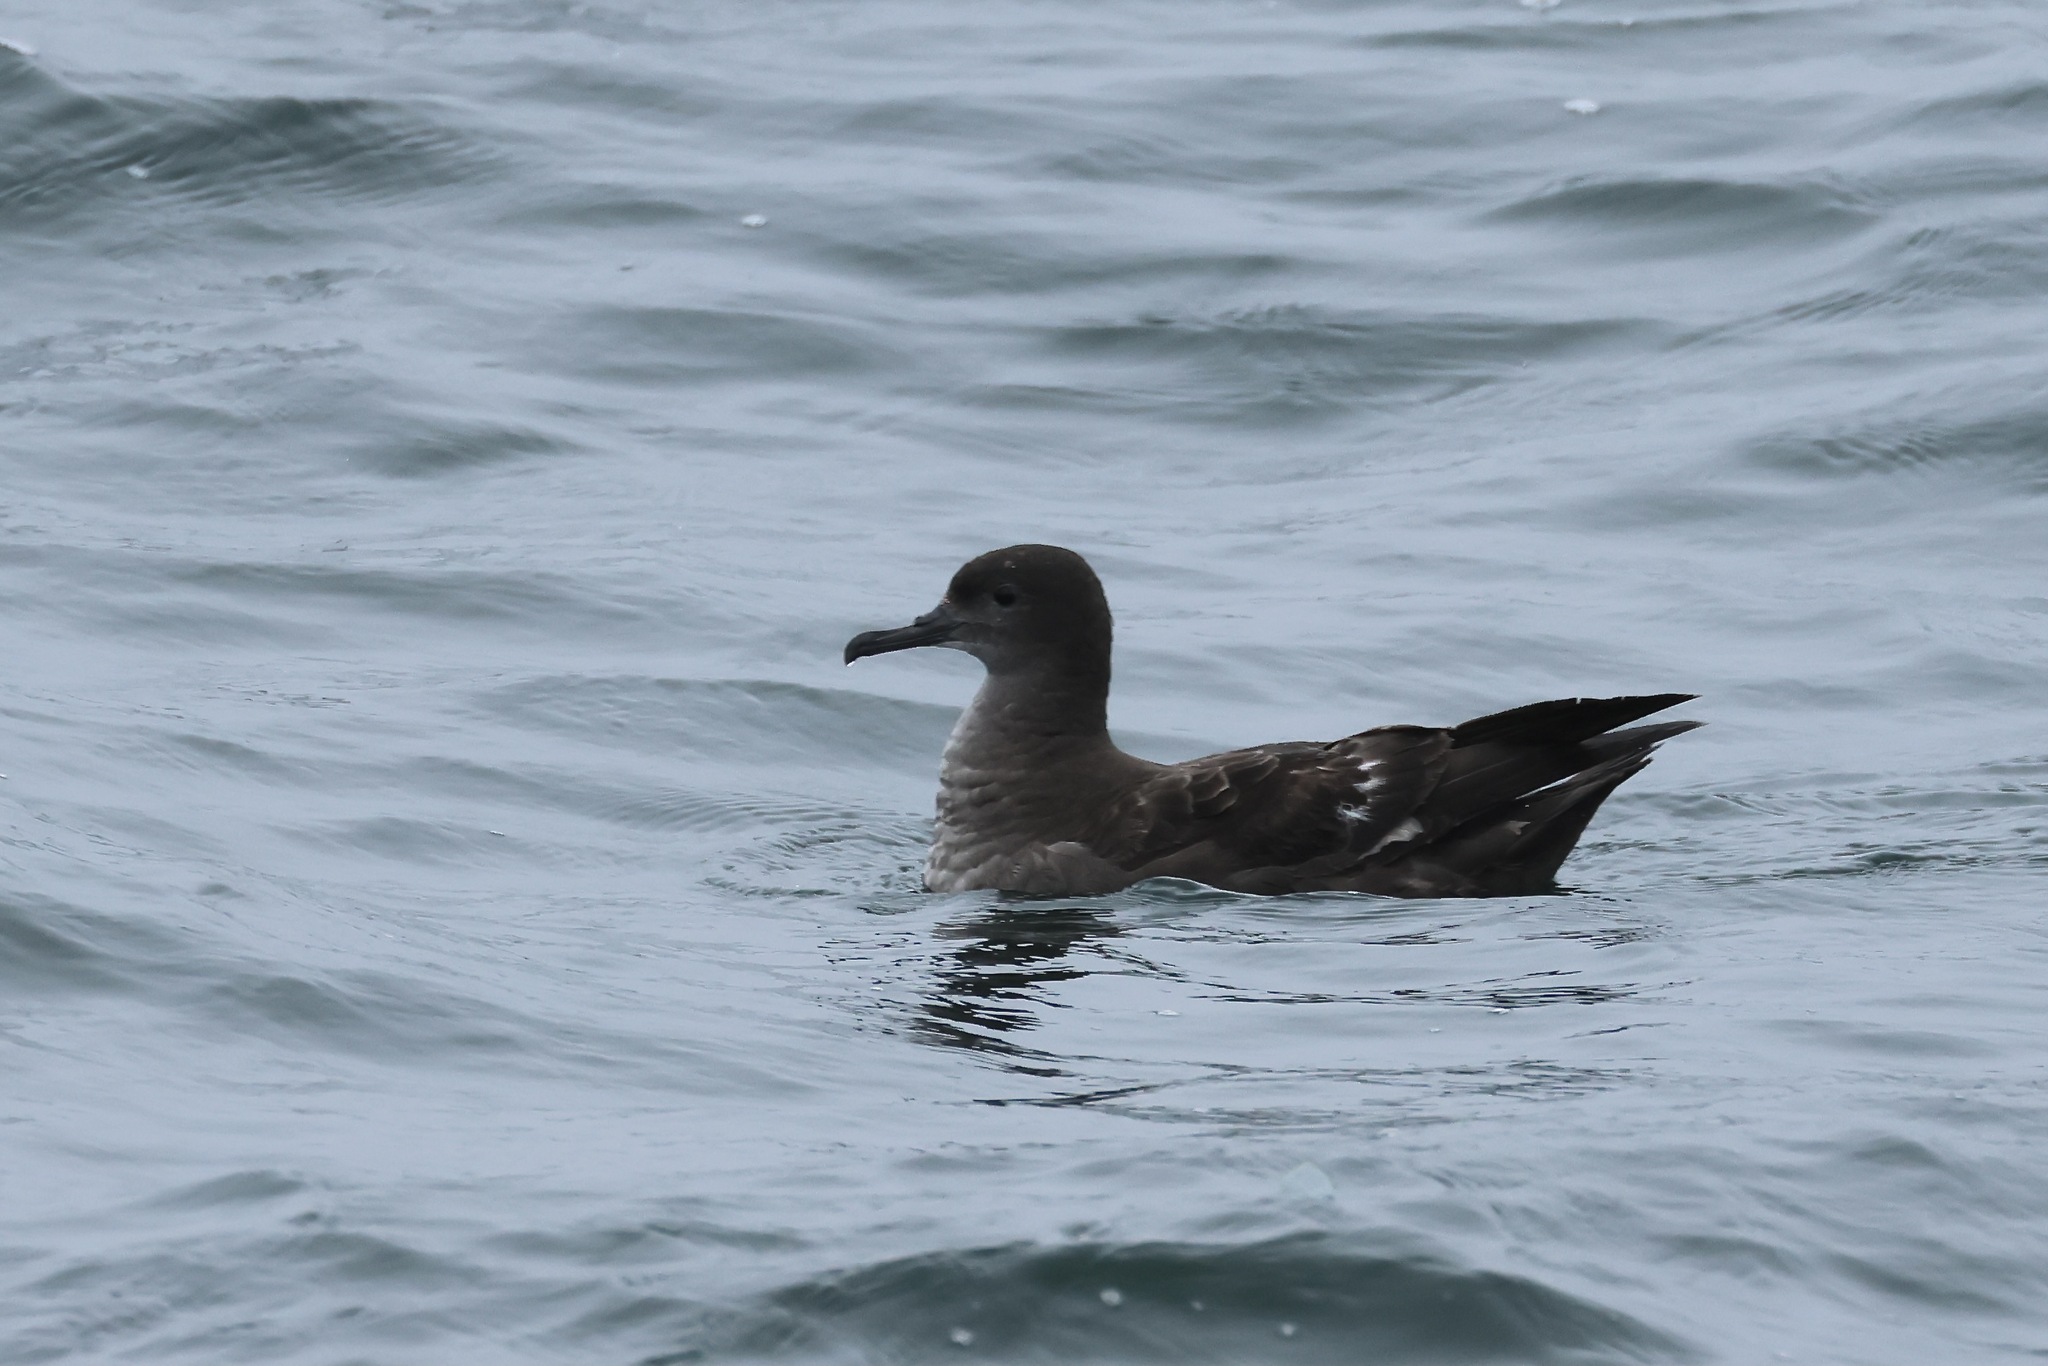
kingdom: Animalia
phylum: Chordata
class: Aves
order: Procellariiformes
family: Procellariidae
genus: Puffinus
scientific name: Puffinus griseus
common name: Sooty shearwater
